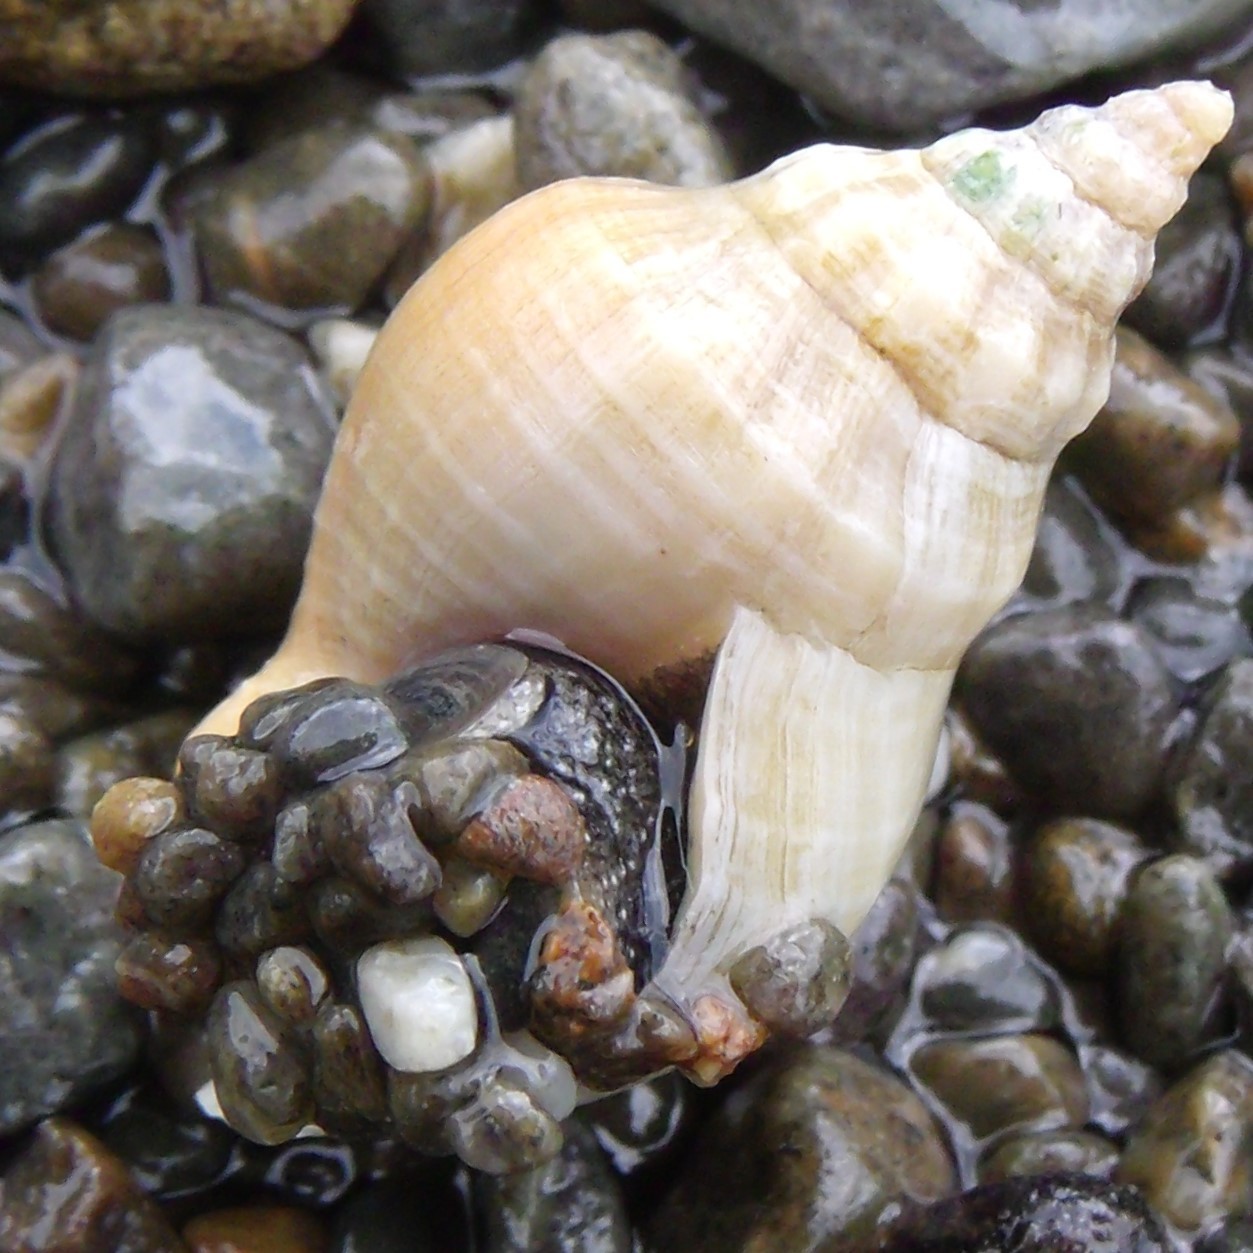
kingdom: Animalia
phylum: Mollusca
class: Gastropoda
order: Neogastropoda
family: Cominellidae
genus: Cominella
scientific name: Cominella adspersa
